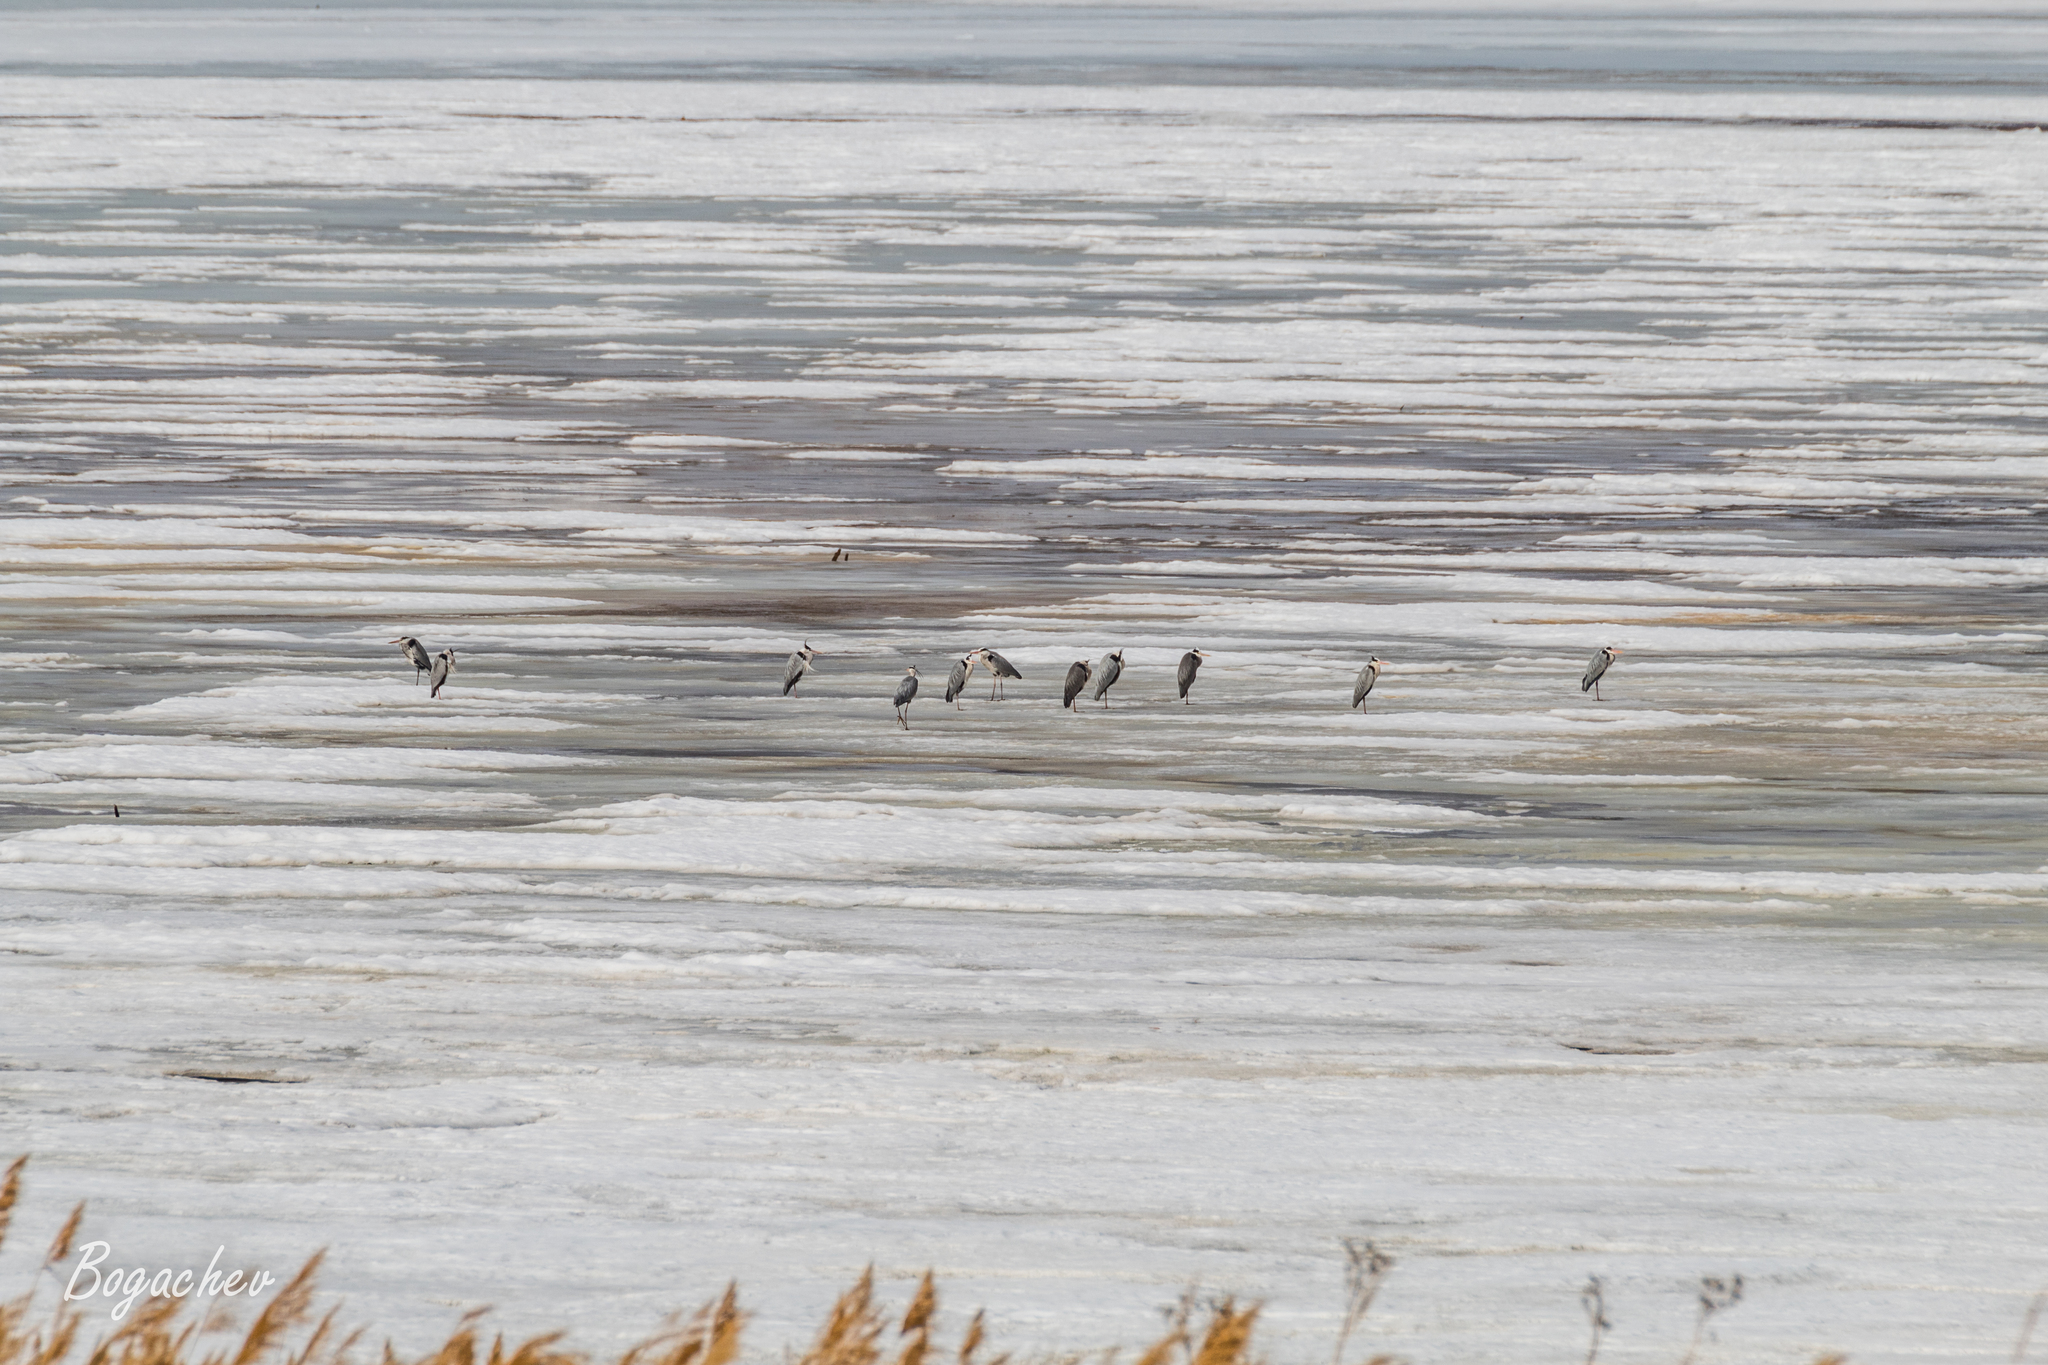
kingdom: Animalia
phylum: Chordata
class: Aves
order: Pelecaniformes
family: Ardeidae
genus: Ardea
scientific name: Ardea cinerea
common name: Grey heron
